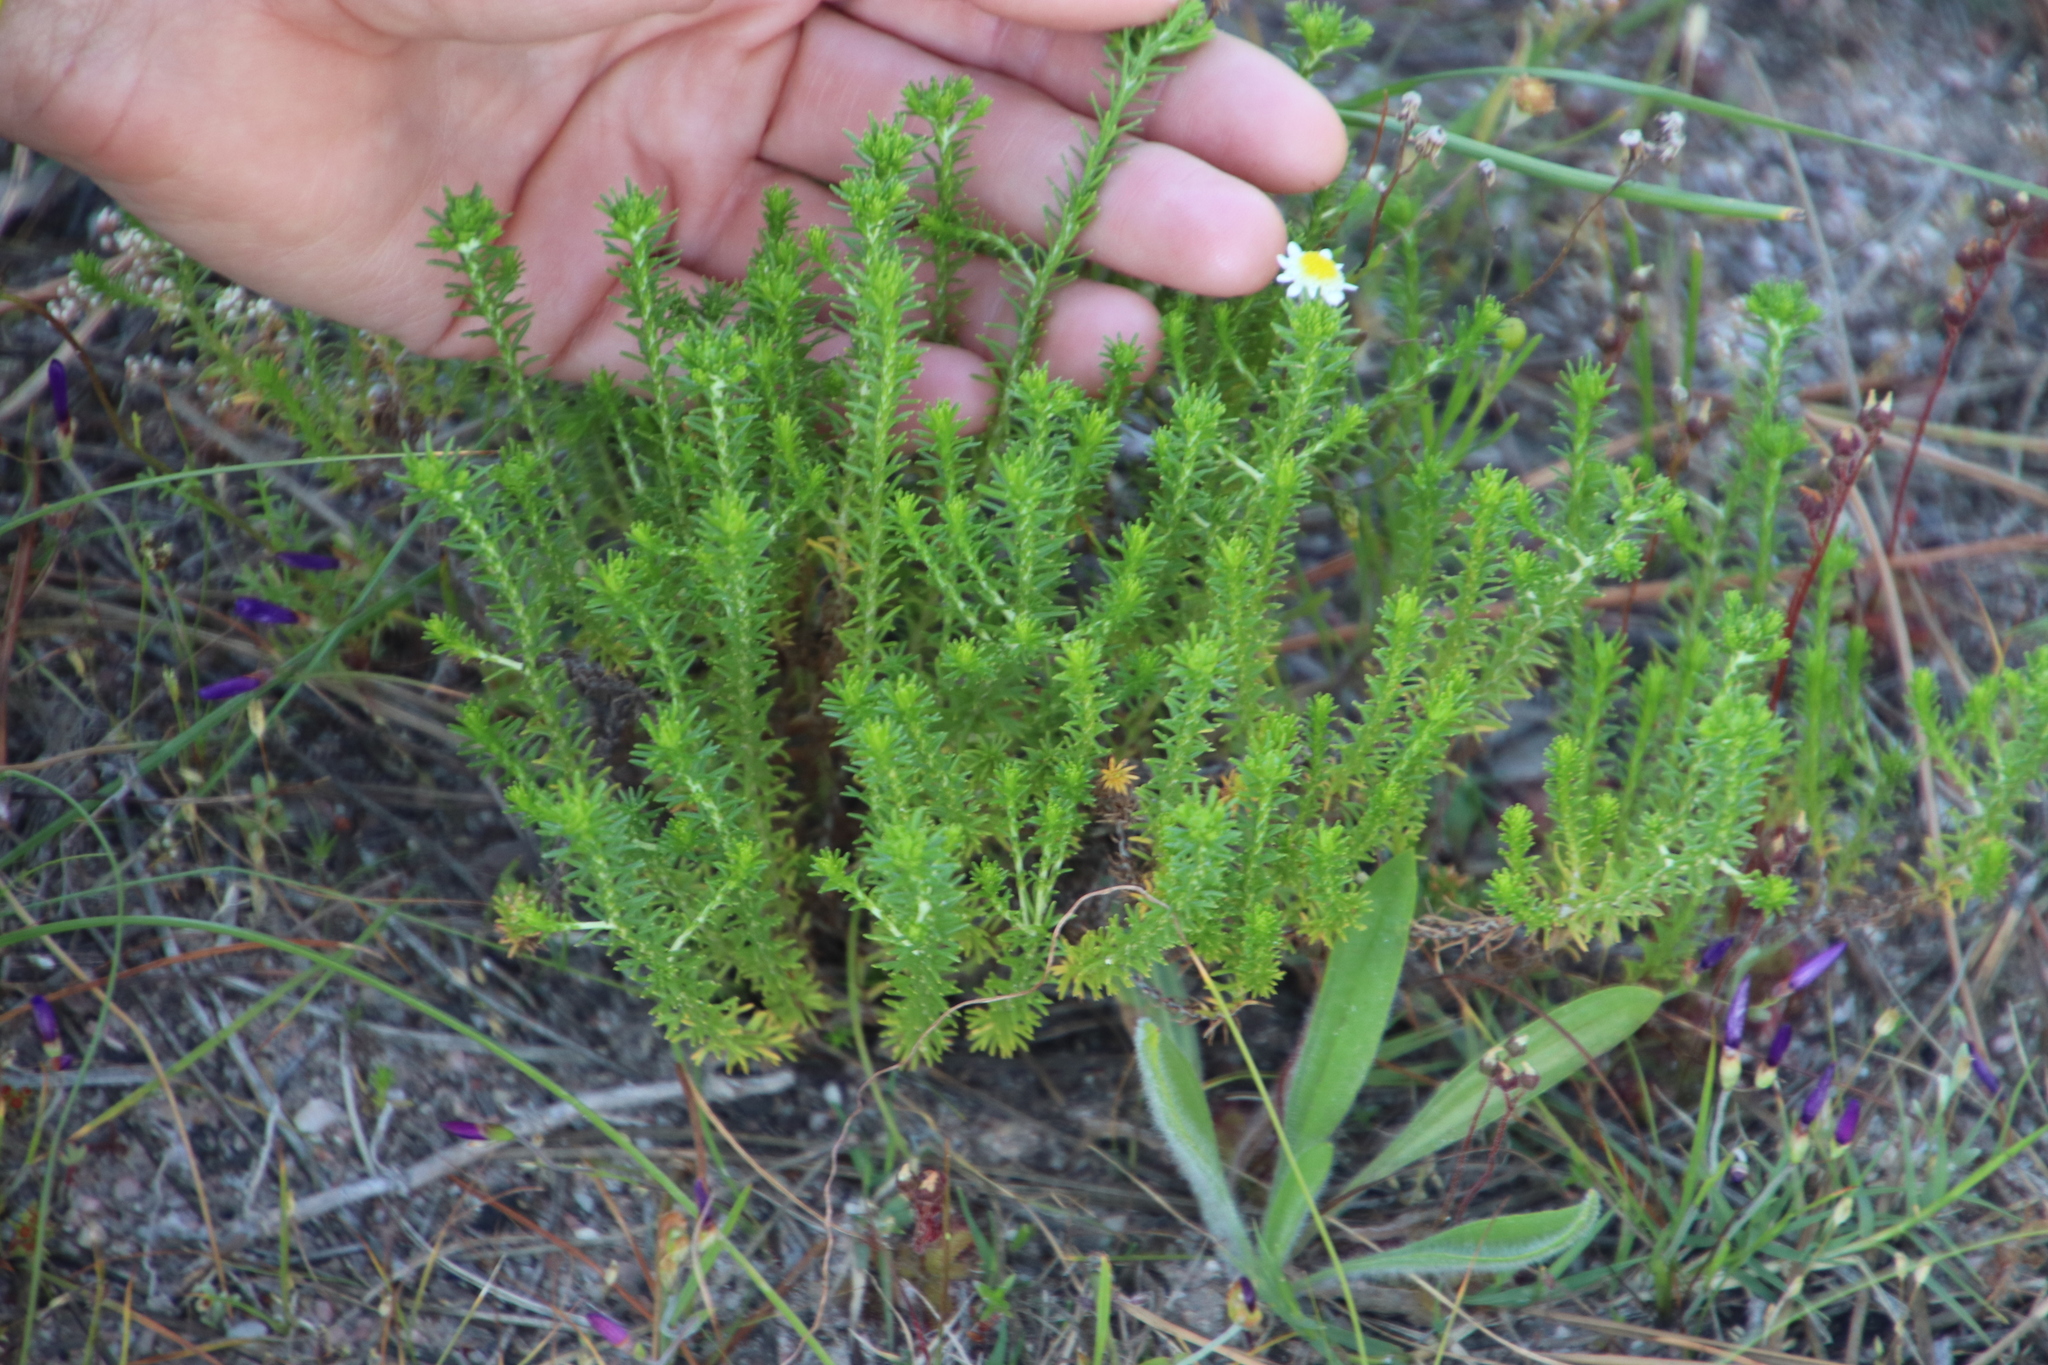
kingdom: Plantae
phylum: Tracheophyta
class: Magnoliopsida
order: Asterales
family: Asteraceae
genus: Helichrysum
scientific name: Helichrysum niveum
